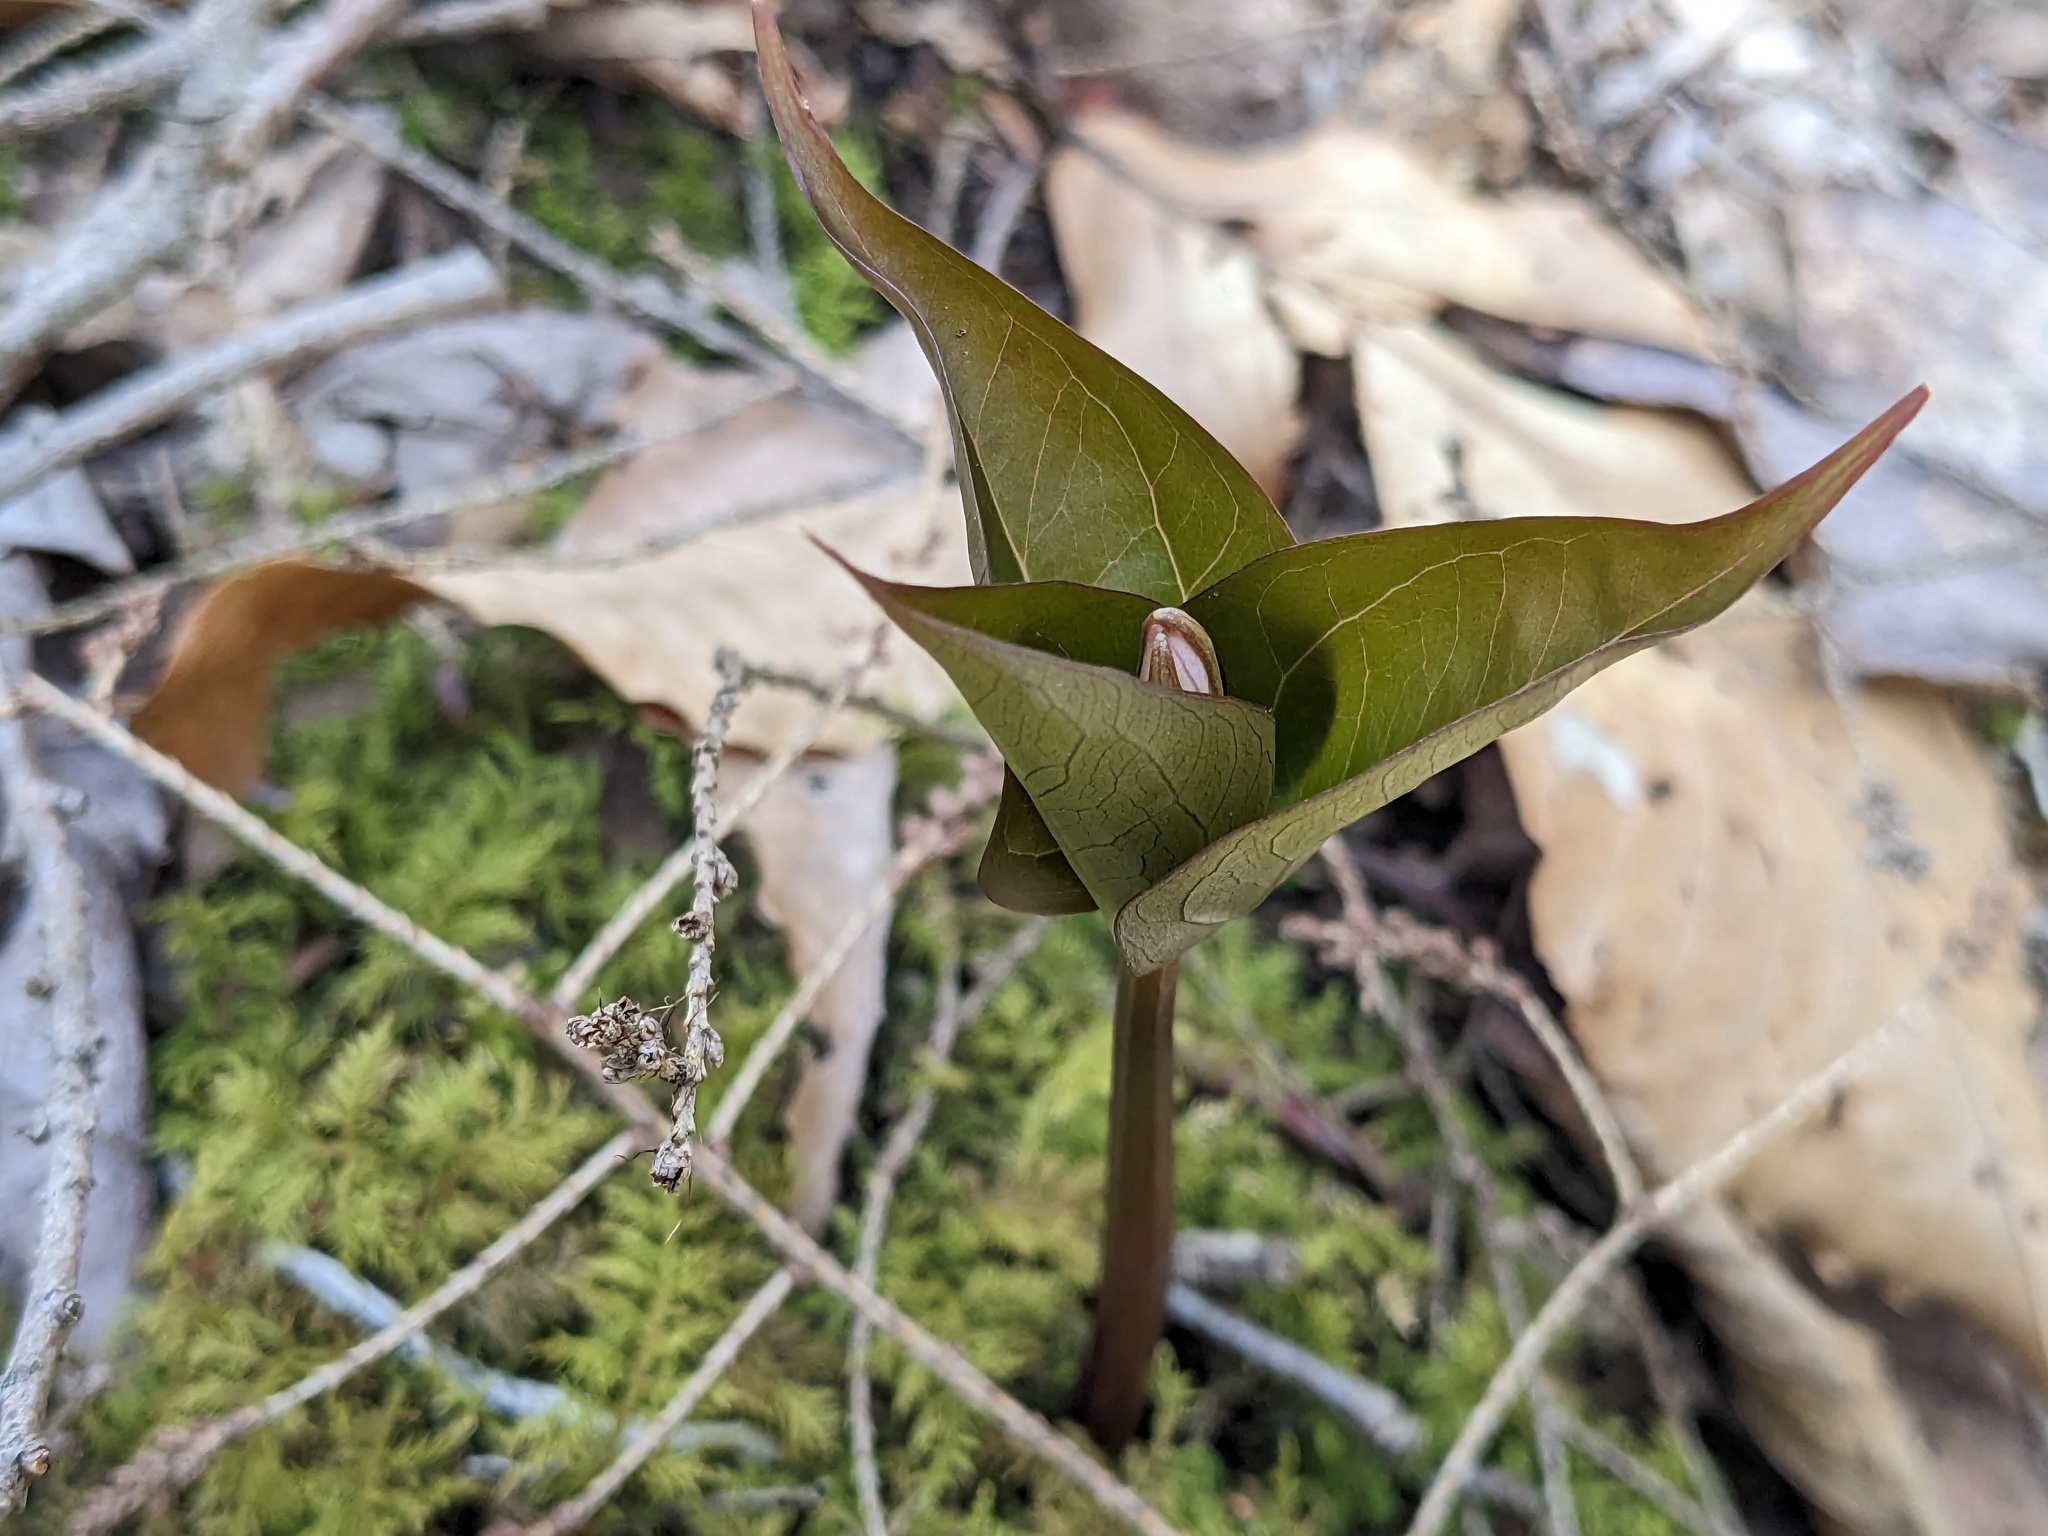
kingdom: Plantae
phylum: Tracheophyta
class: Liliopsida
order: Liliales
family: Melanthiaceae
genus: Trillium
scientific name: Trillium undulatum
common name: Paint trillium
